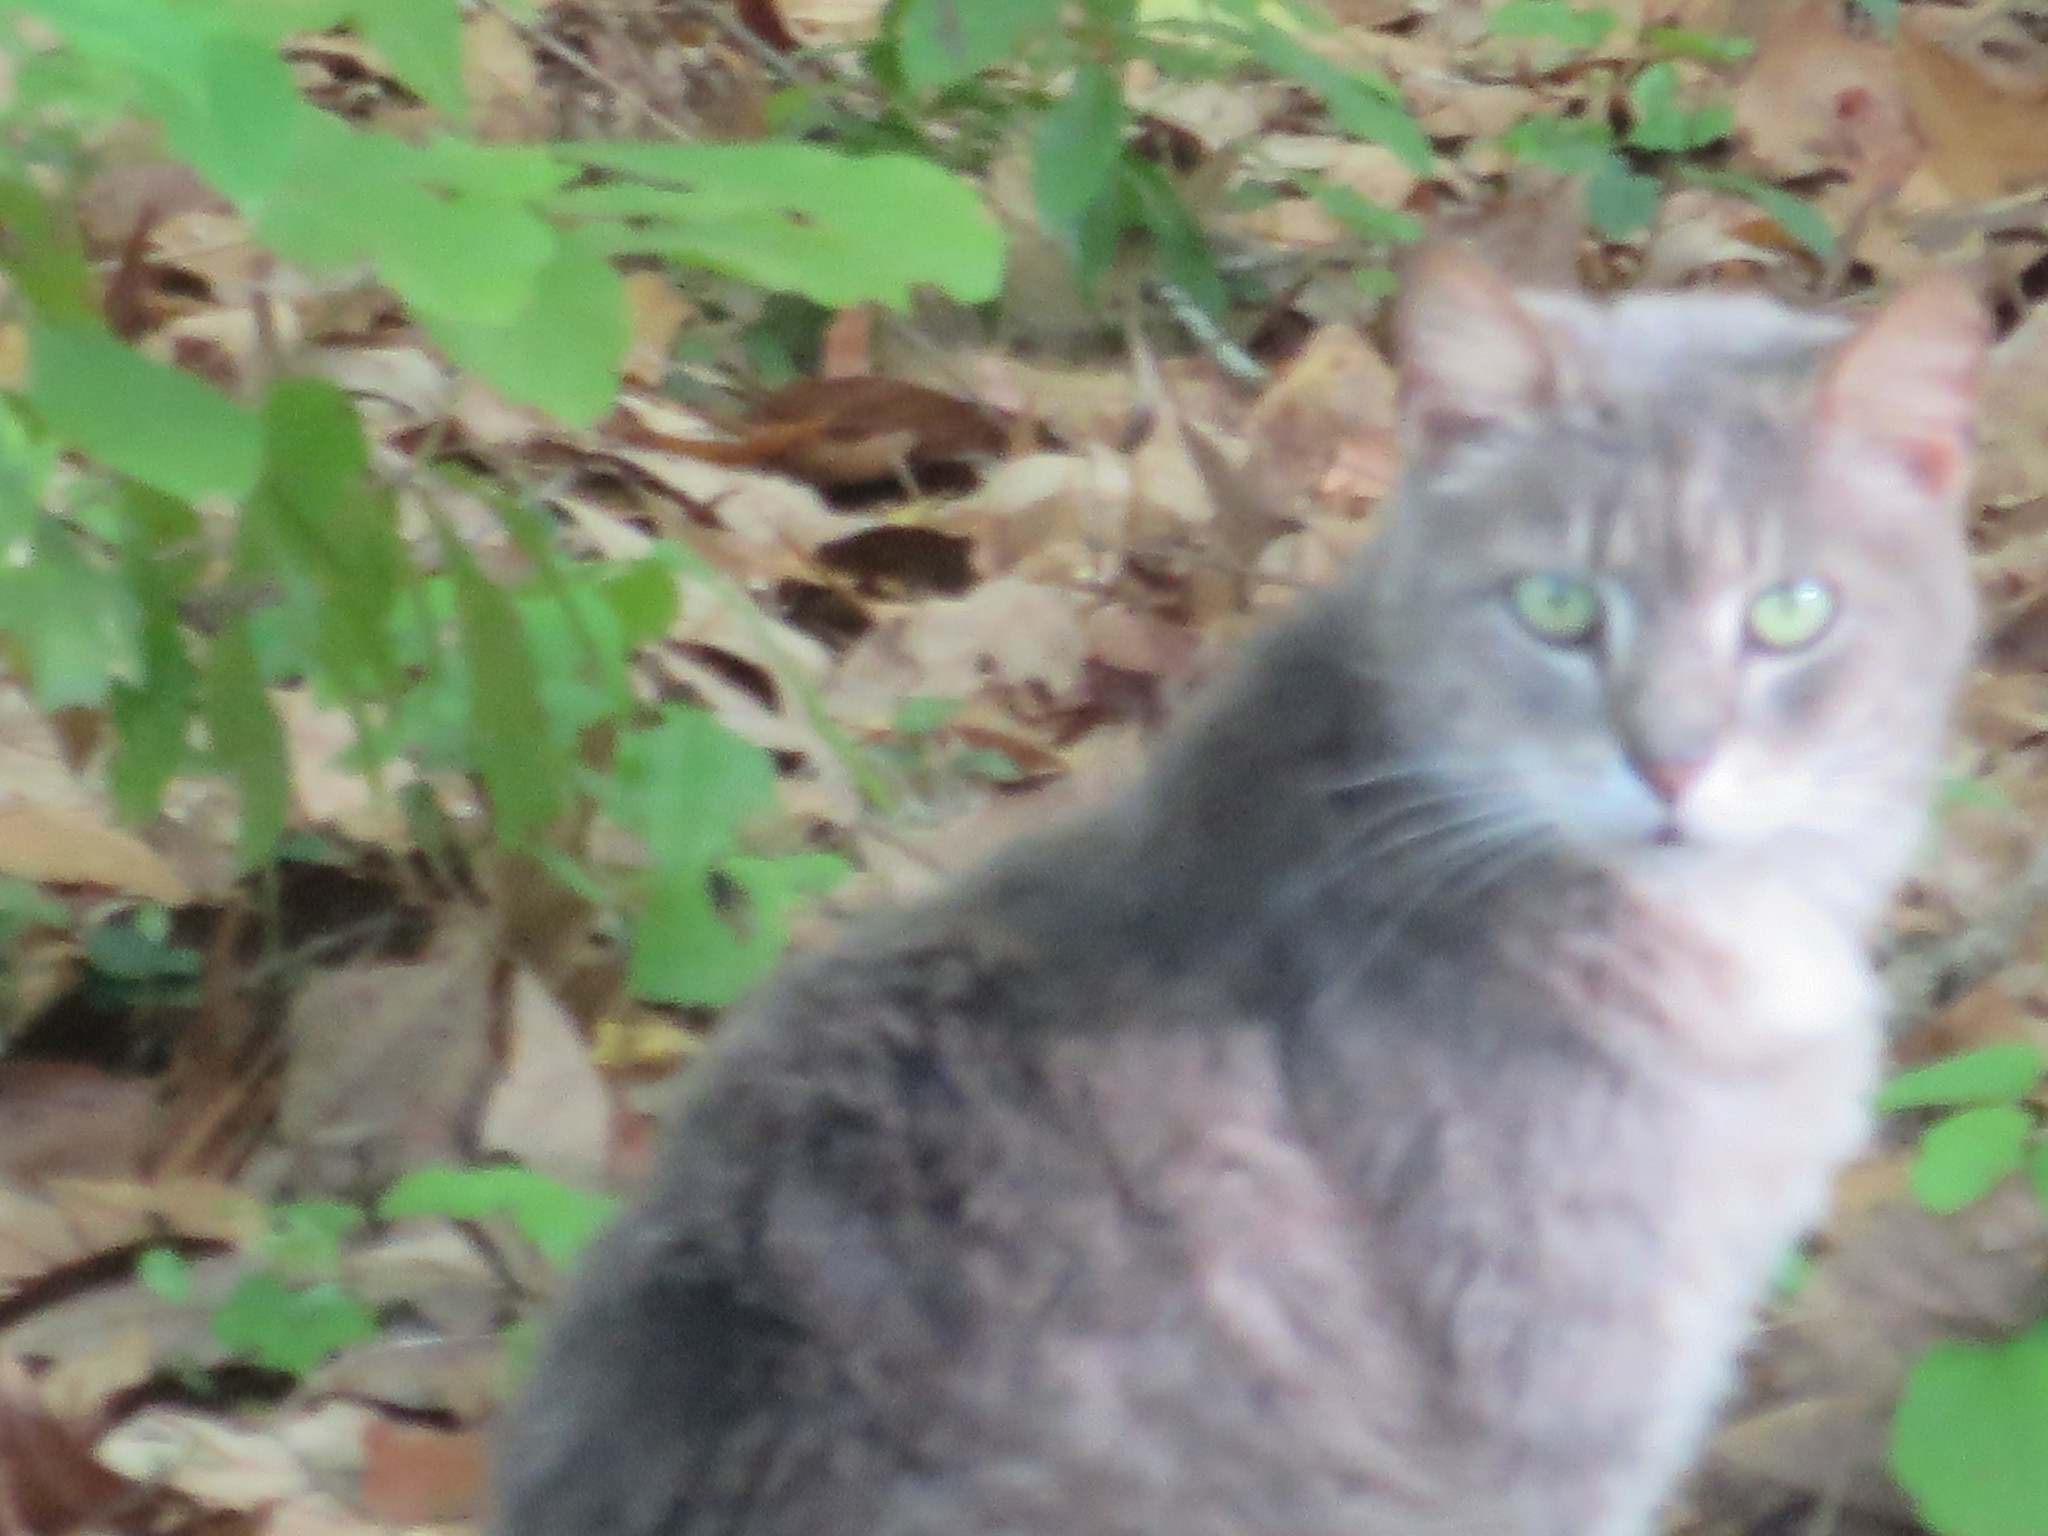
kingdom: Animalia
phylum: Chordata
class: Mammalia
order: Carnivora
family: Felidae
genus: Felis
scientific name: Felis catus
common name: Domestic cat
